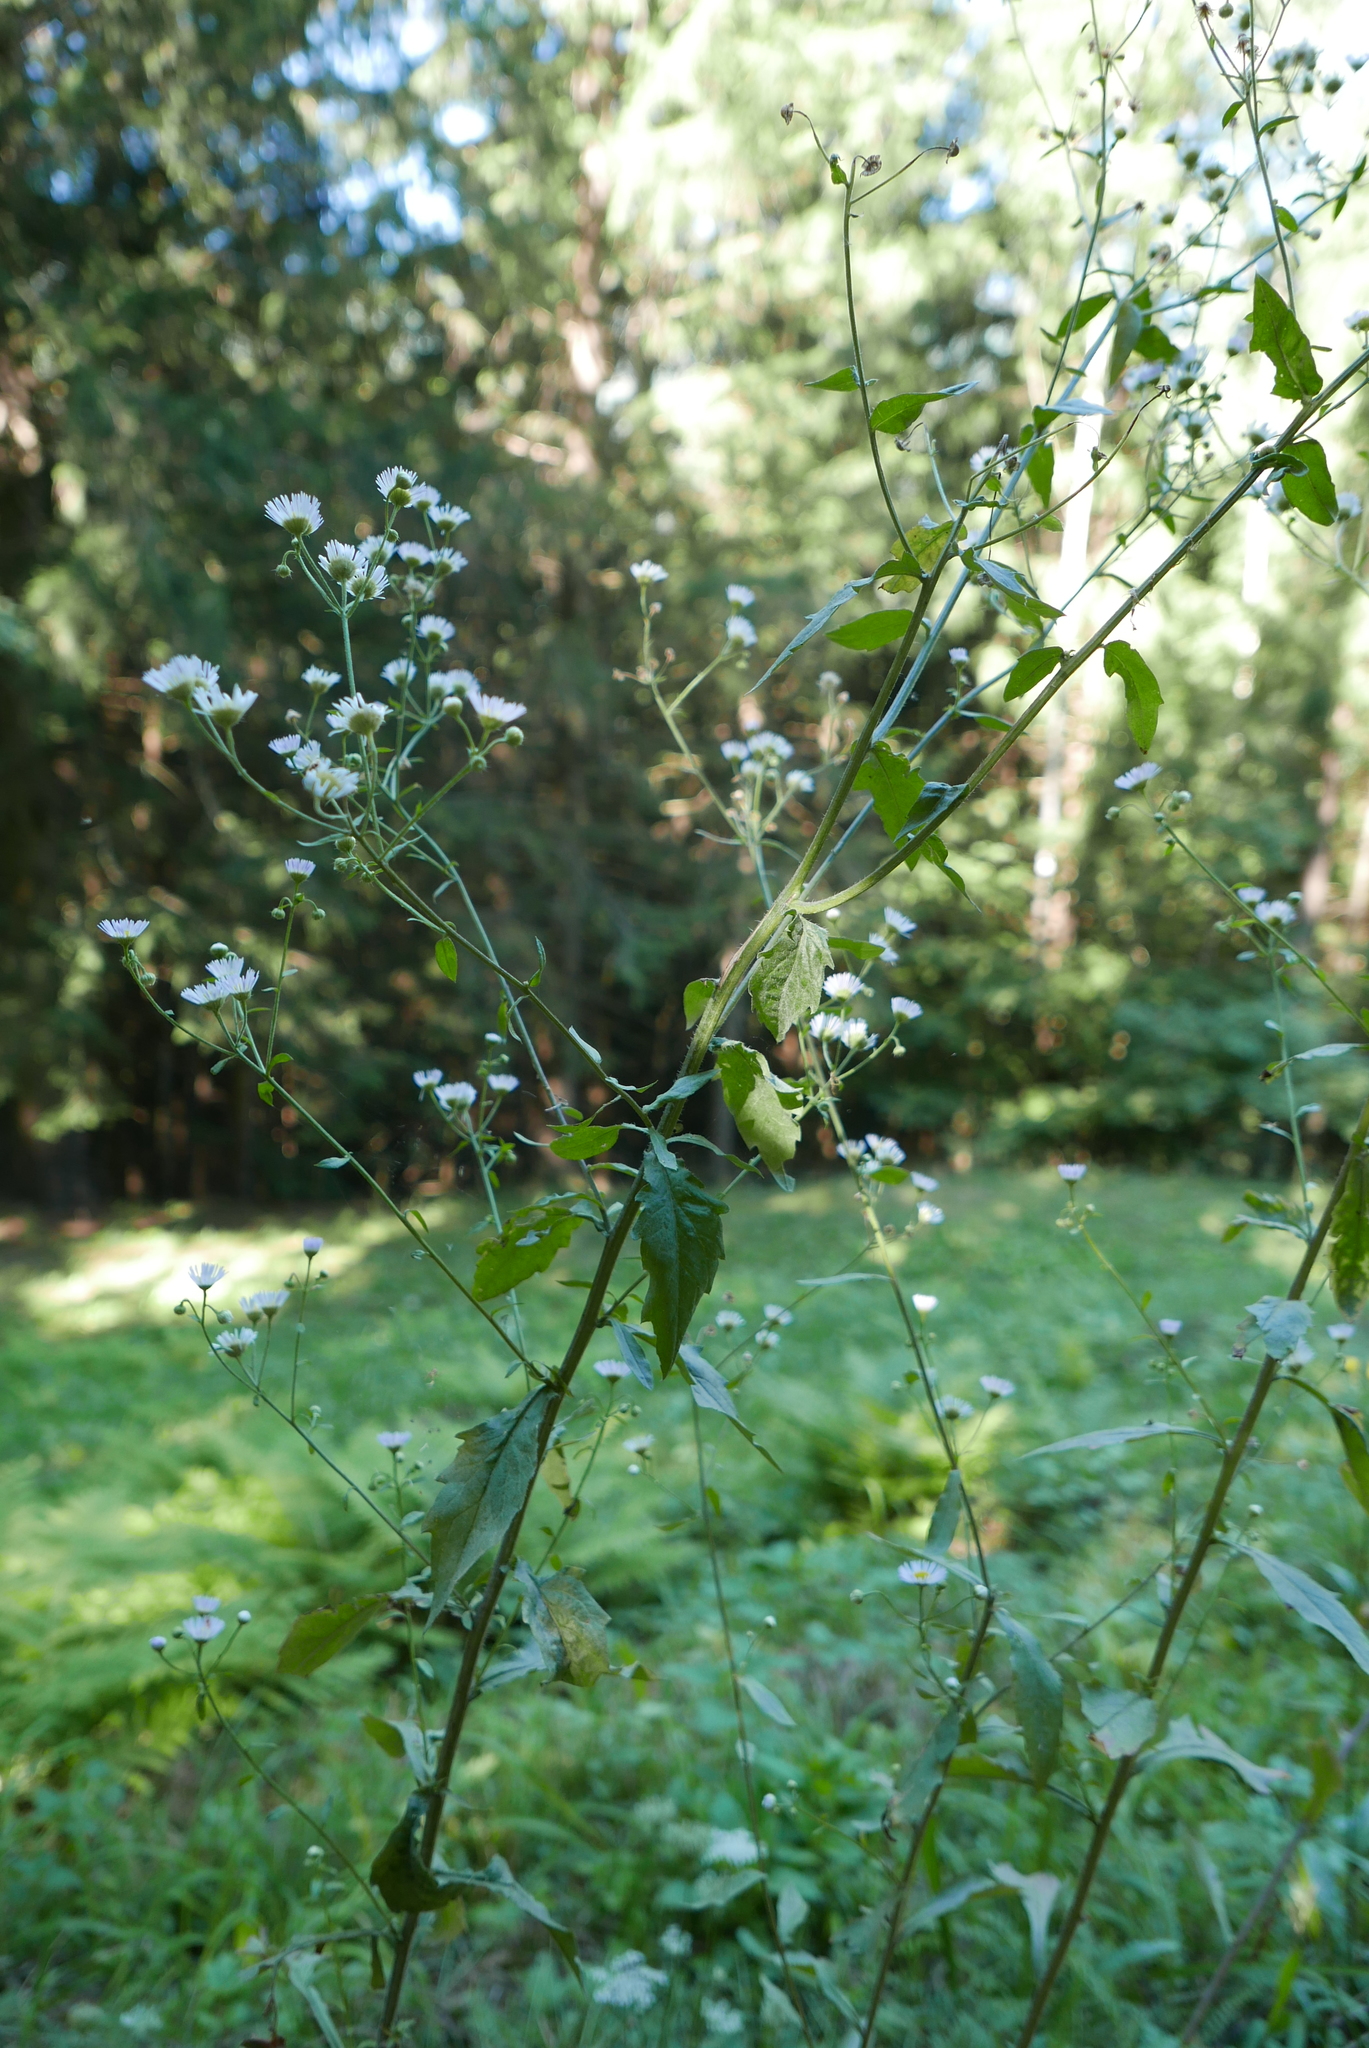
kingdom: Plantae
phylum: Tracheophyta
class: Magnoliopsida
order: Asterales
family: Asteraceae
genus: Erigeron
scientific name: Erigeron annuus
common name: Tall fleabane
